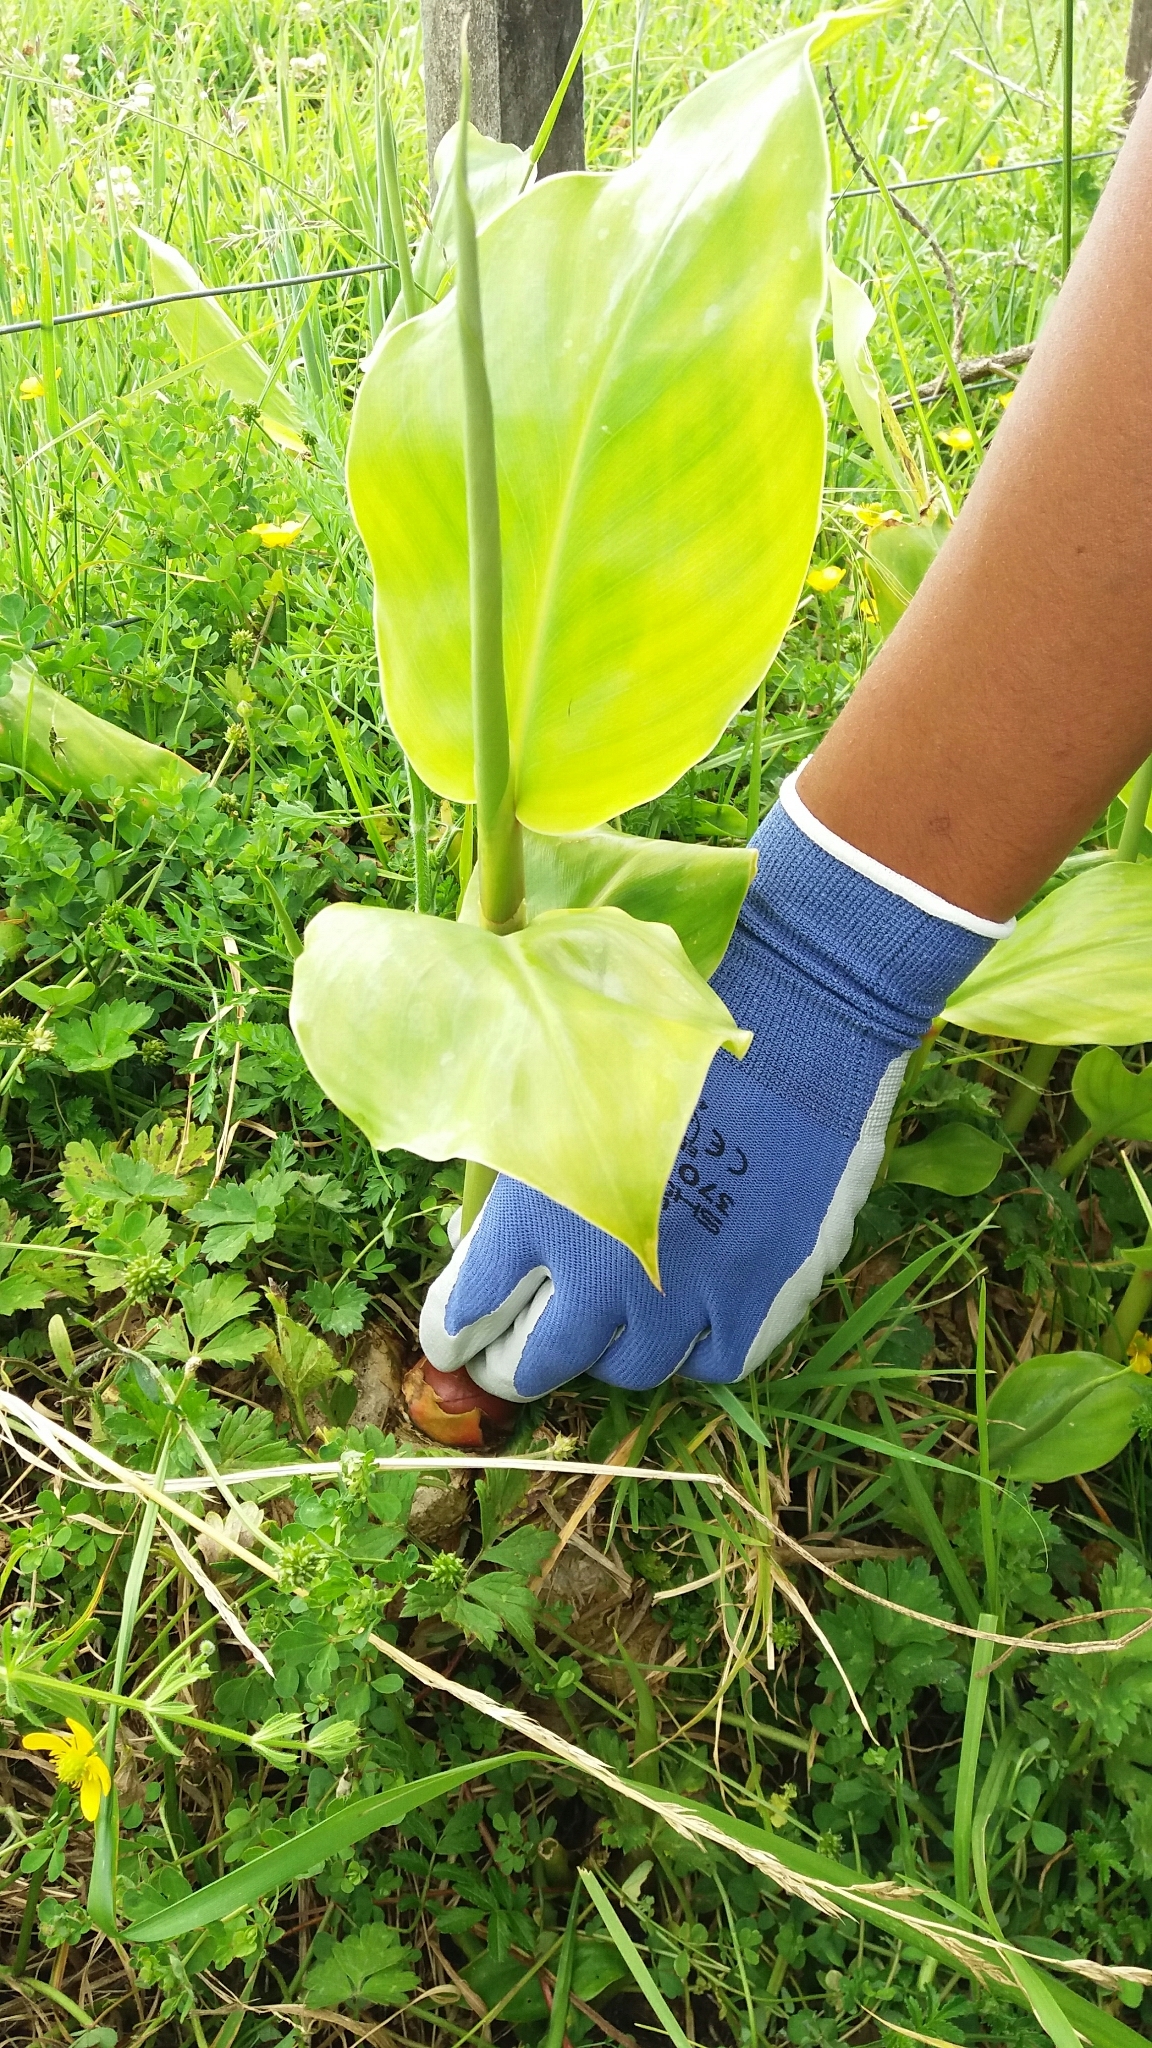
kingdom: Plantae
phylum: Tracheophyta
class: Liliopsida
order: Zingiberales
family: Zingiberaceae
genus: Hedychium
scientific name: Hedychium gardnerianum
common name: Himalayan ginger
